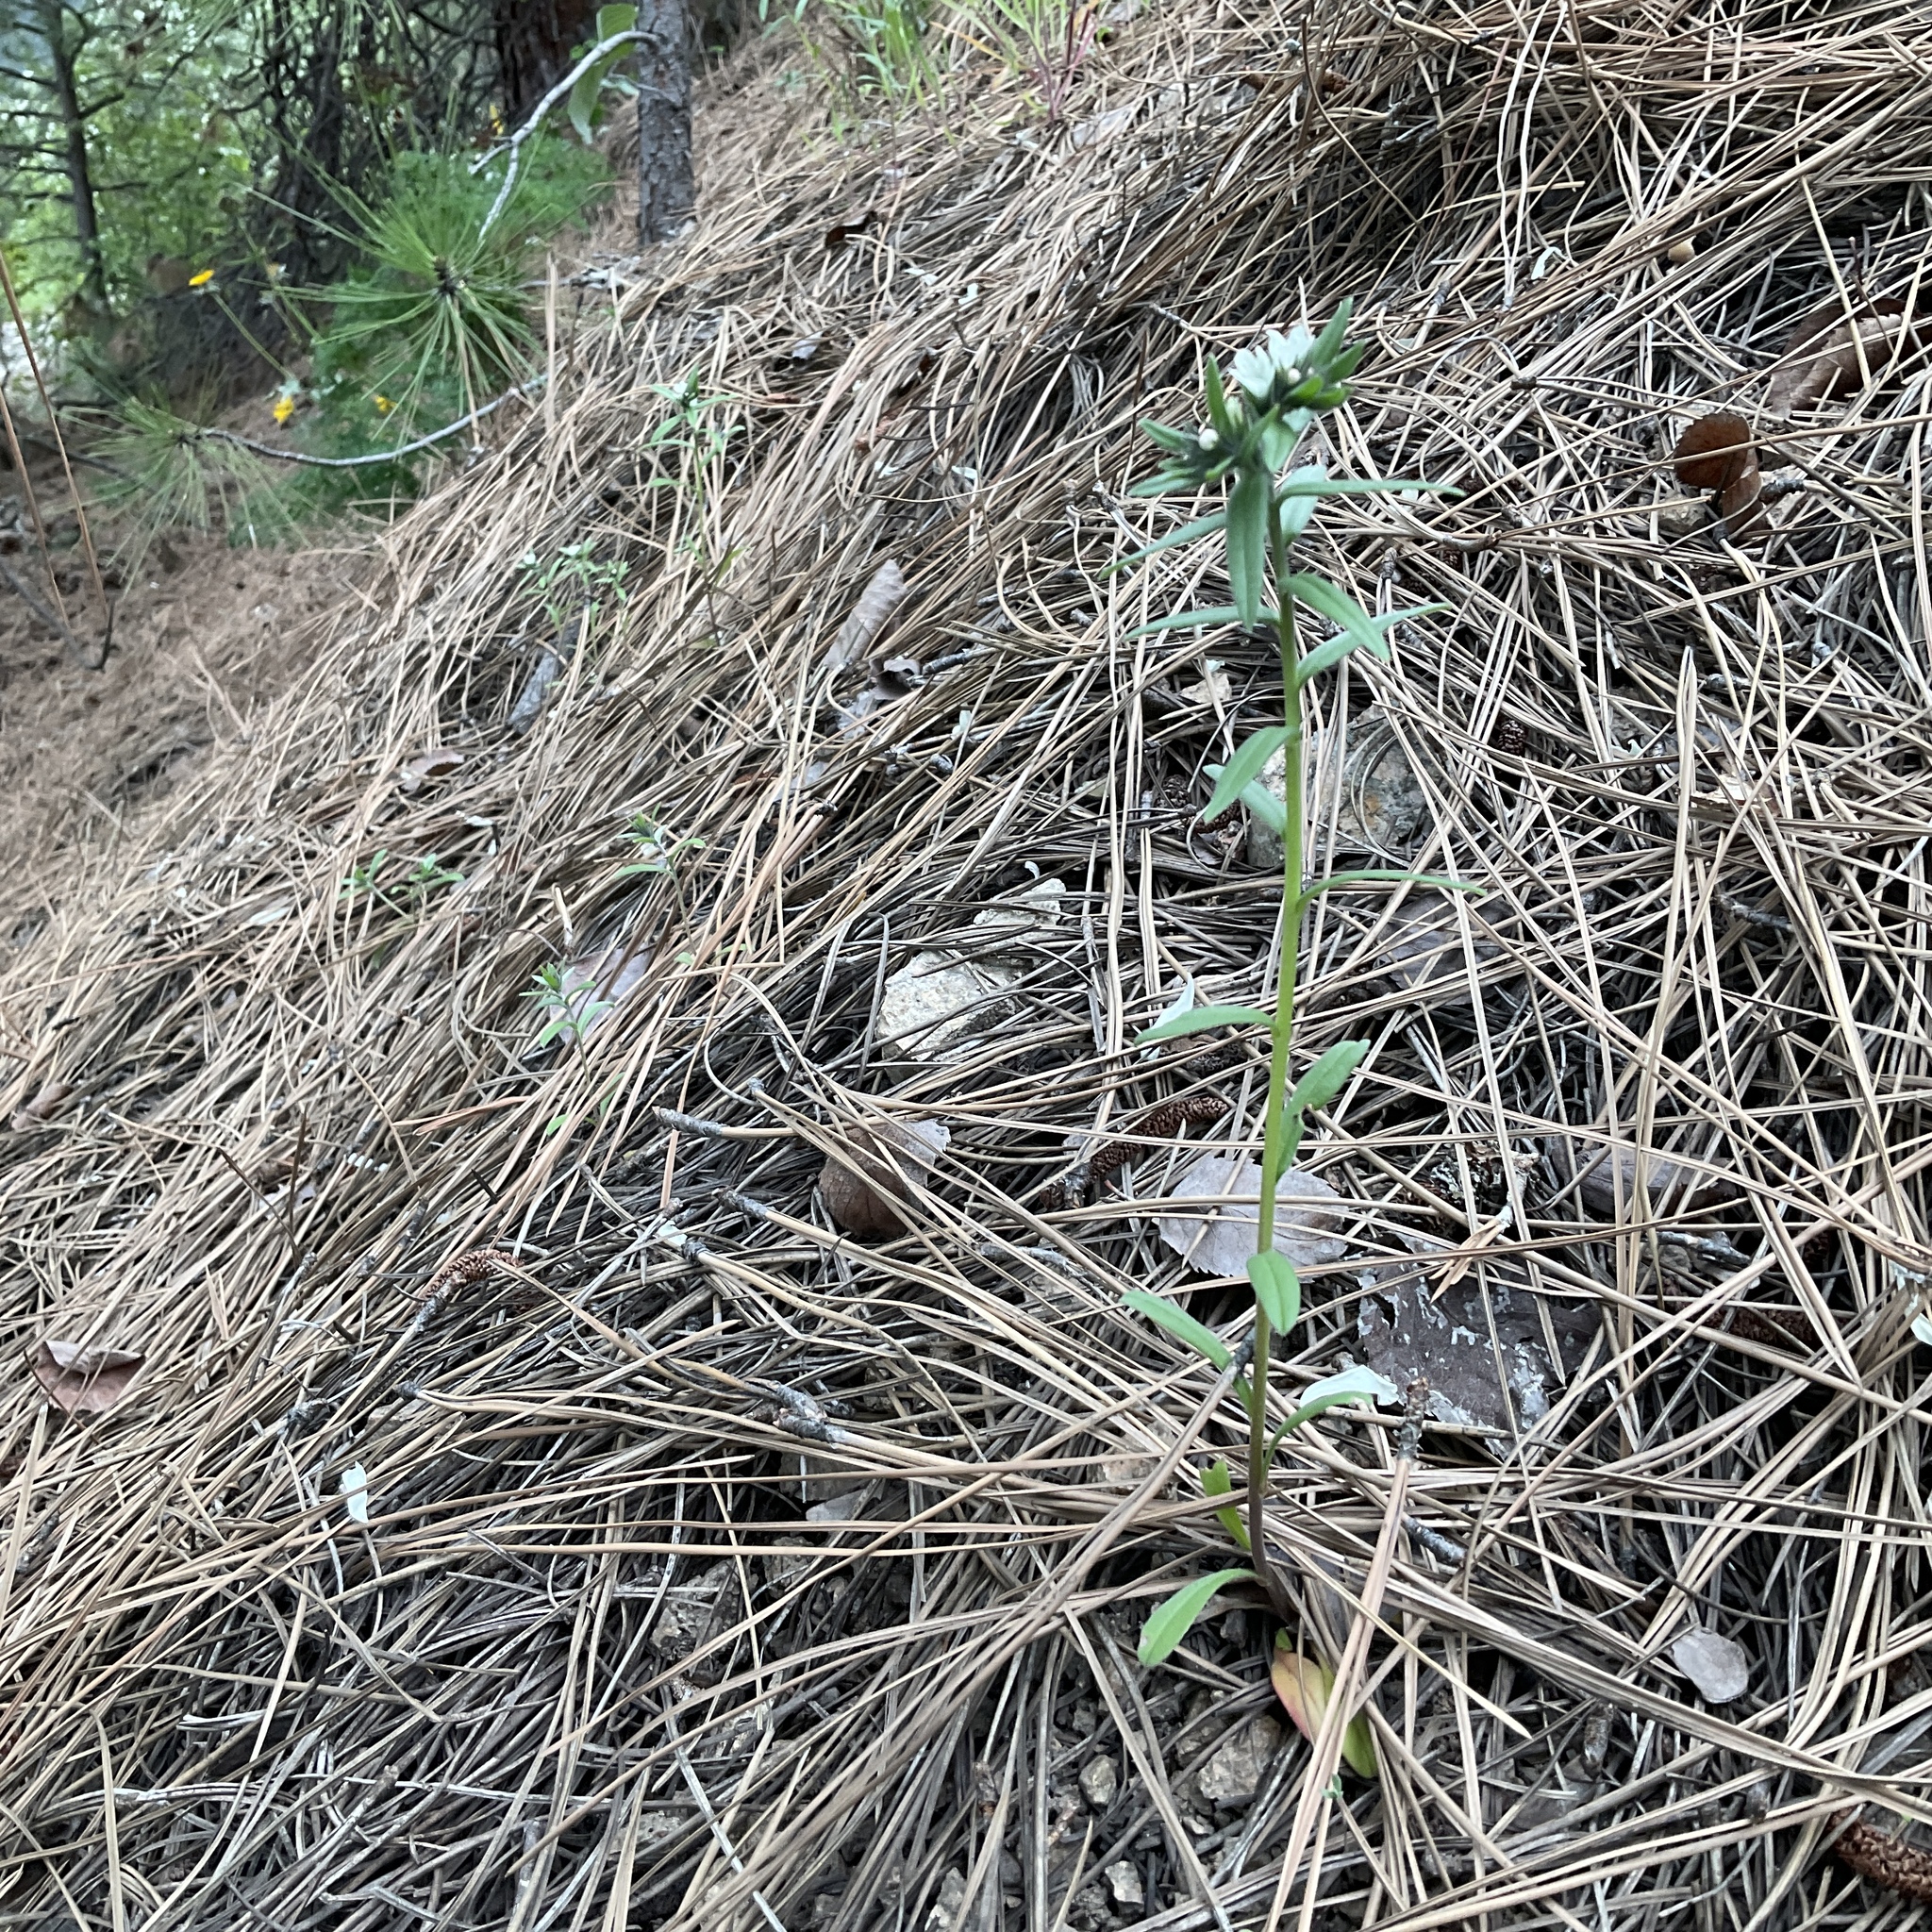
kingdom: Plantae
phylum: Tracheophyta
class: Magnoliopsida
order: Boraginales
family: Boraginaceae
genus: Buglossoides
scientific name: Buglossoides arvensis
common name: Corn gromwell
